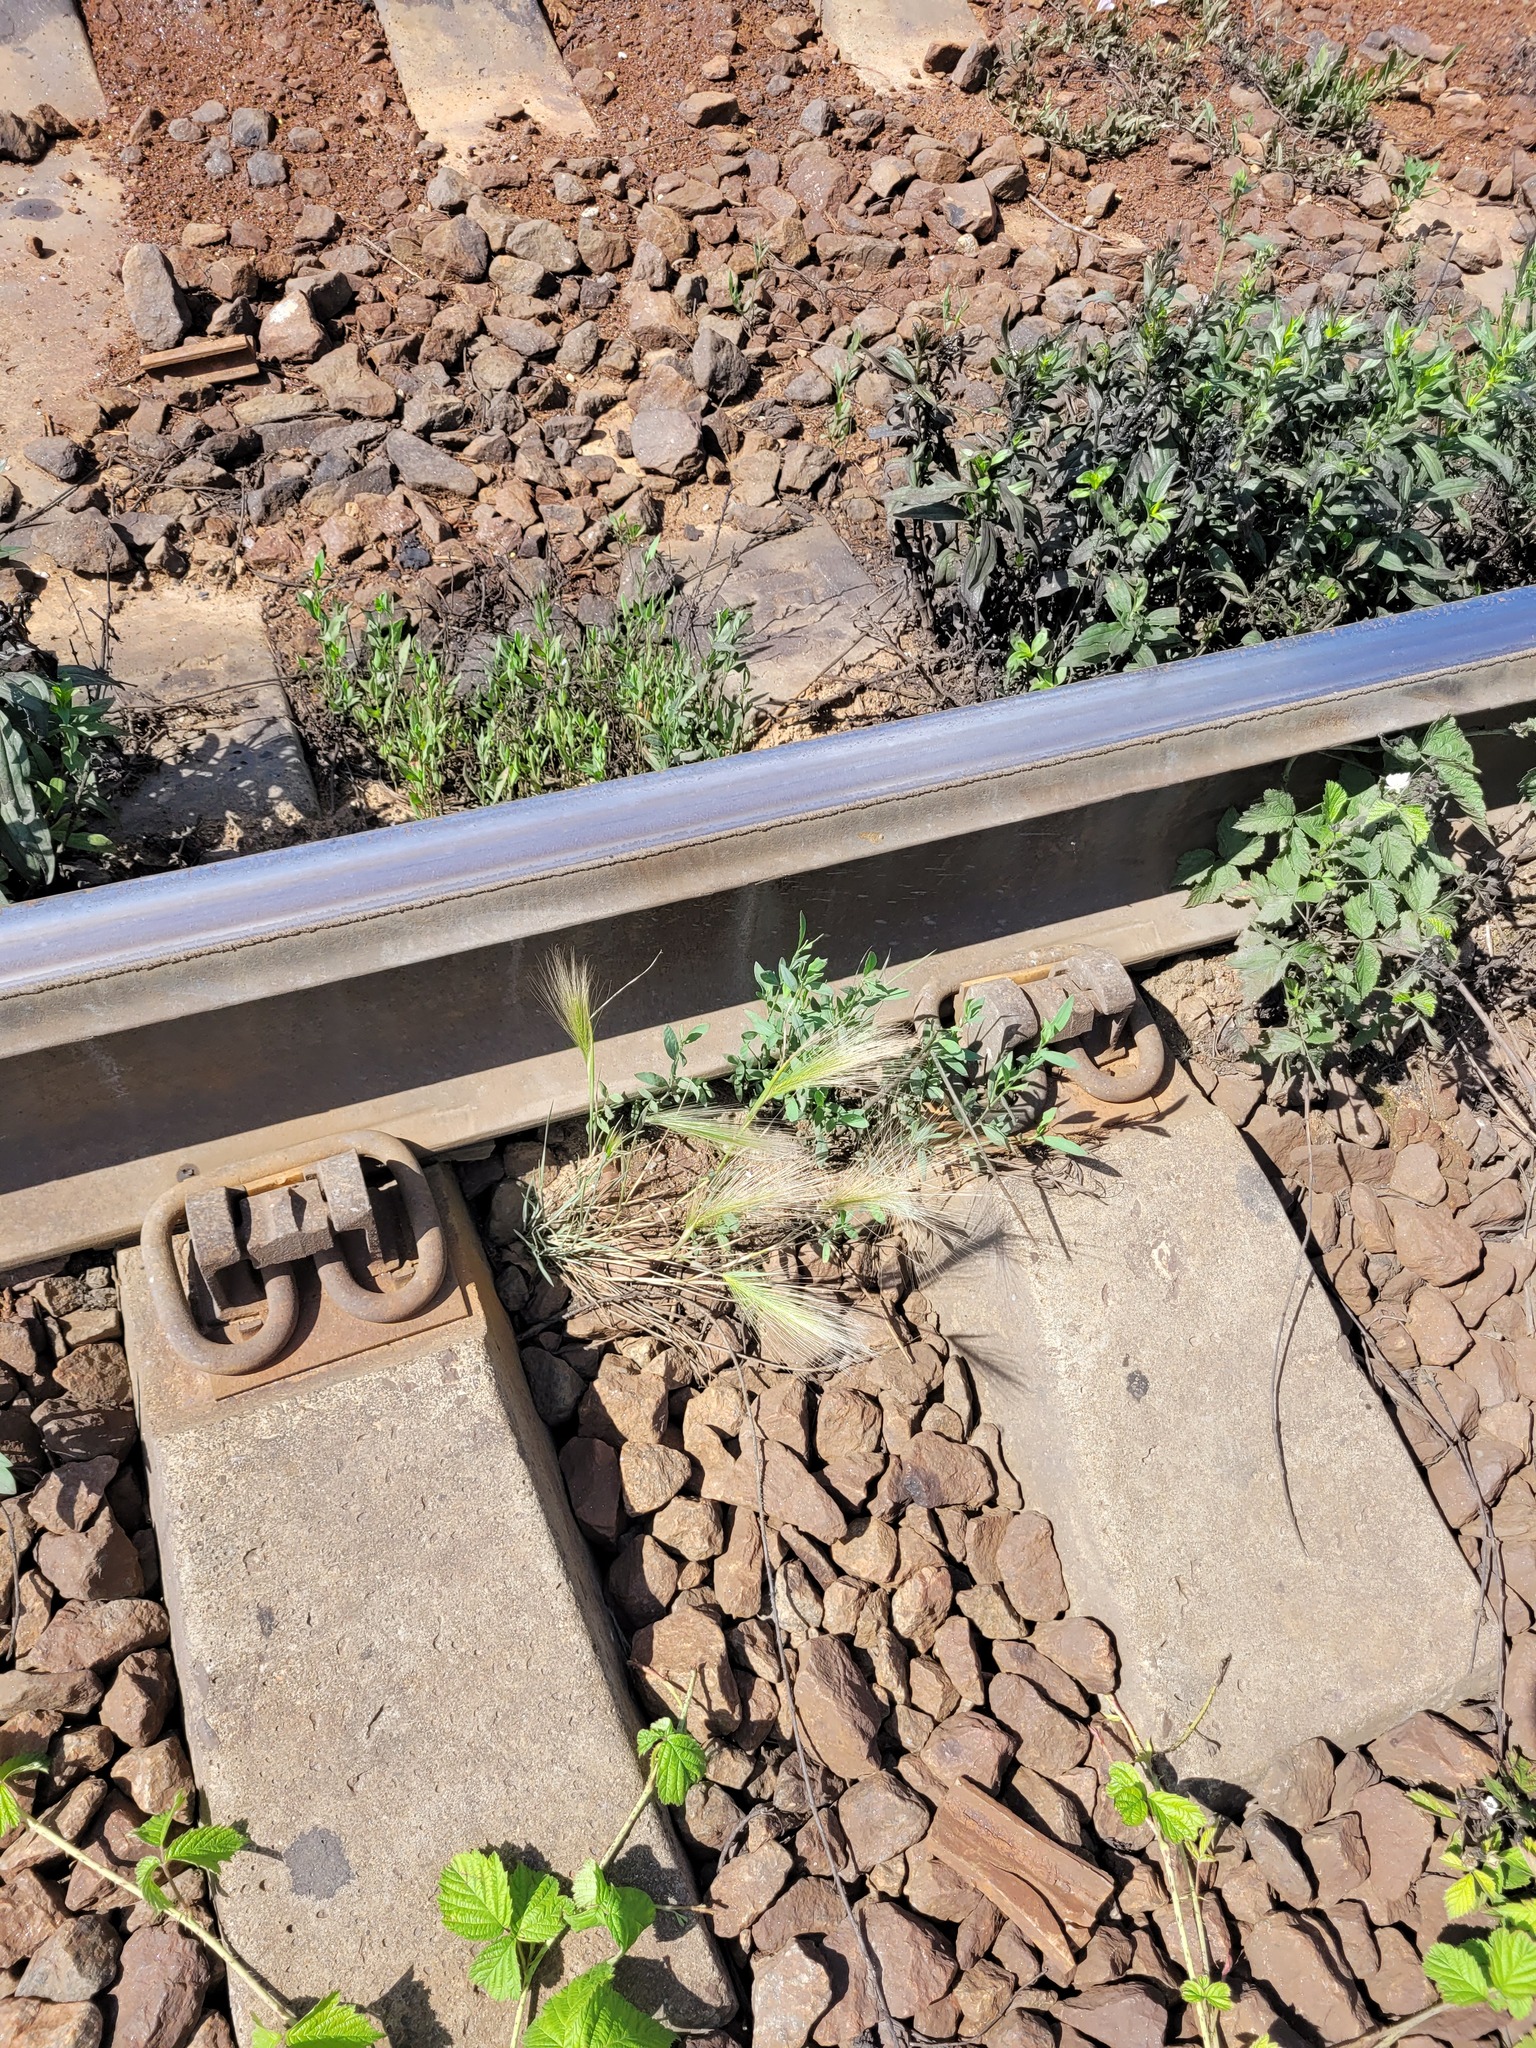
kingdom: Plantae
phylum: Tracheophyta
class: Liliopsida
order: Poales
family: Poaceae
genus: Hordeum
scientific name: Hordeum jubatum
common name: Foxtail barley
